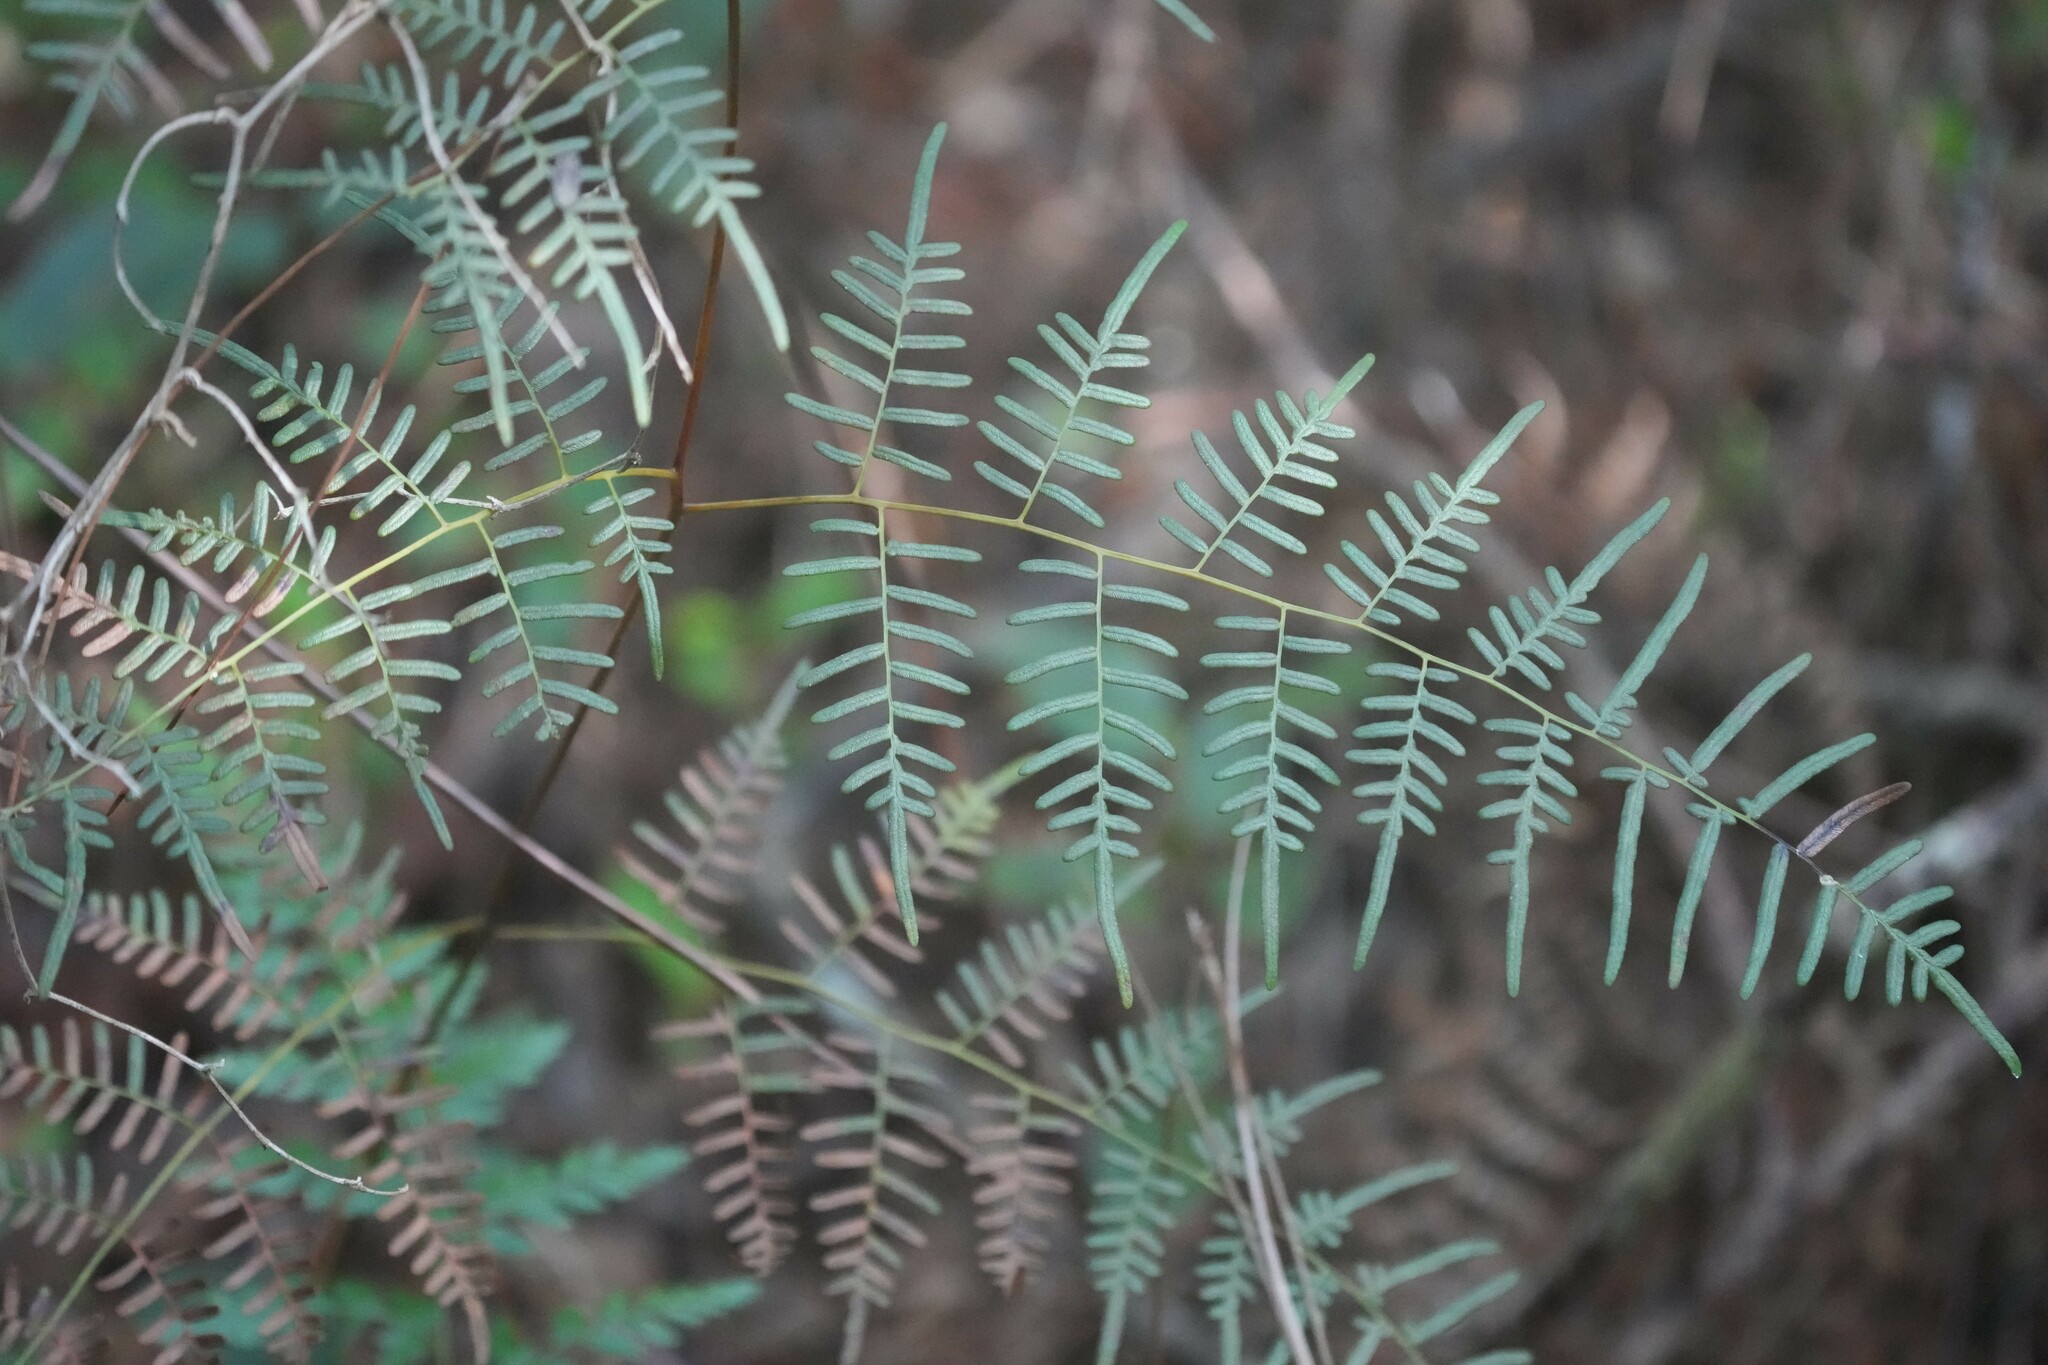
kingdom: Plantae
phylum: Tracheophyta
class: Polypodiopsida
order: Polypodiales
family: Dennstaedtiaceae
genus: Pteridium
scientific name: Pteridium caudatum
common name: Southern bracken fern
